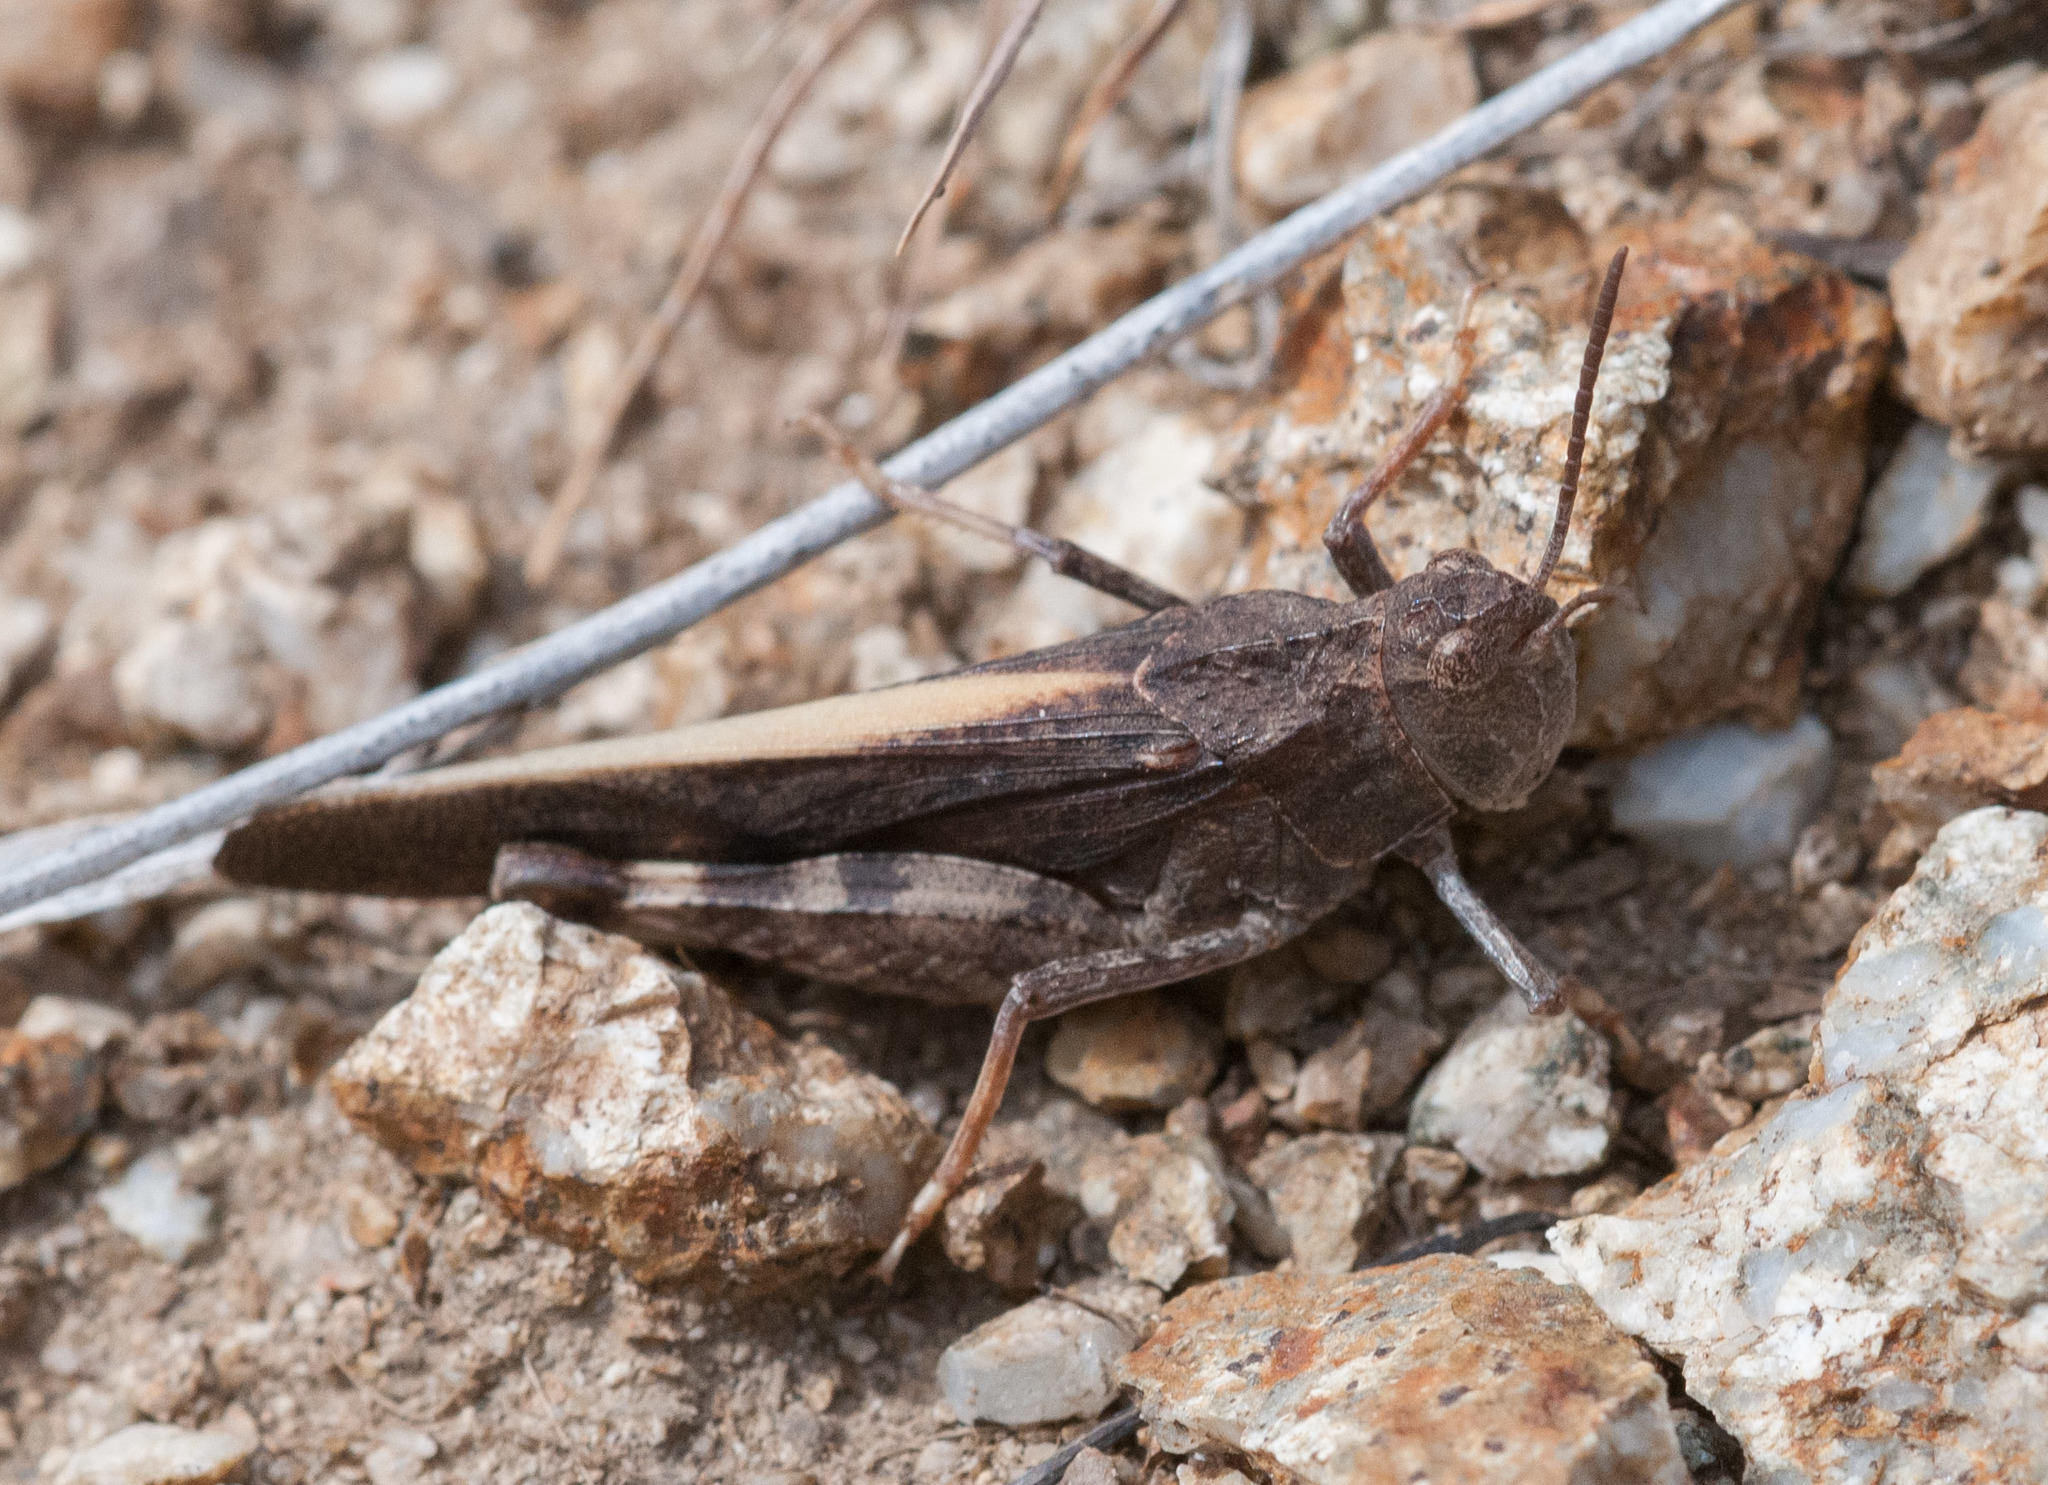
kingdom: Animalia
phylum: Arthropoda
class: Insecta
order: Orthoptera
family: Acrididae
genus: Arphia
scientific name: Arphia conspersa
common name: Speckle-winged rangeland grasshopper
